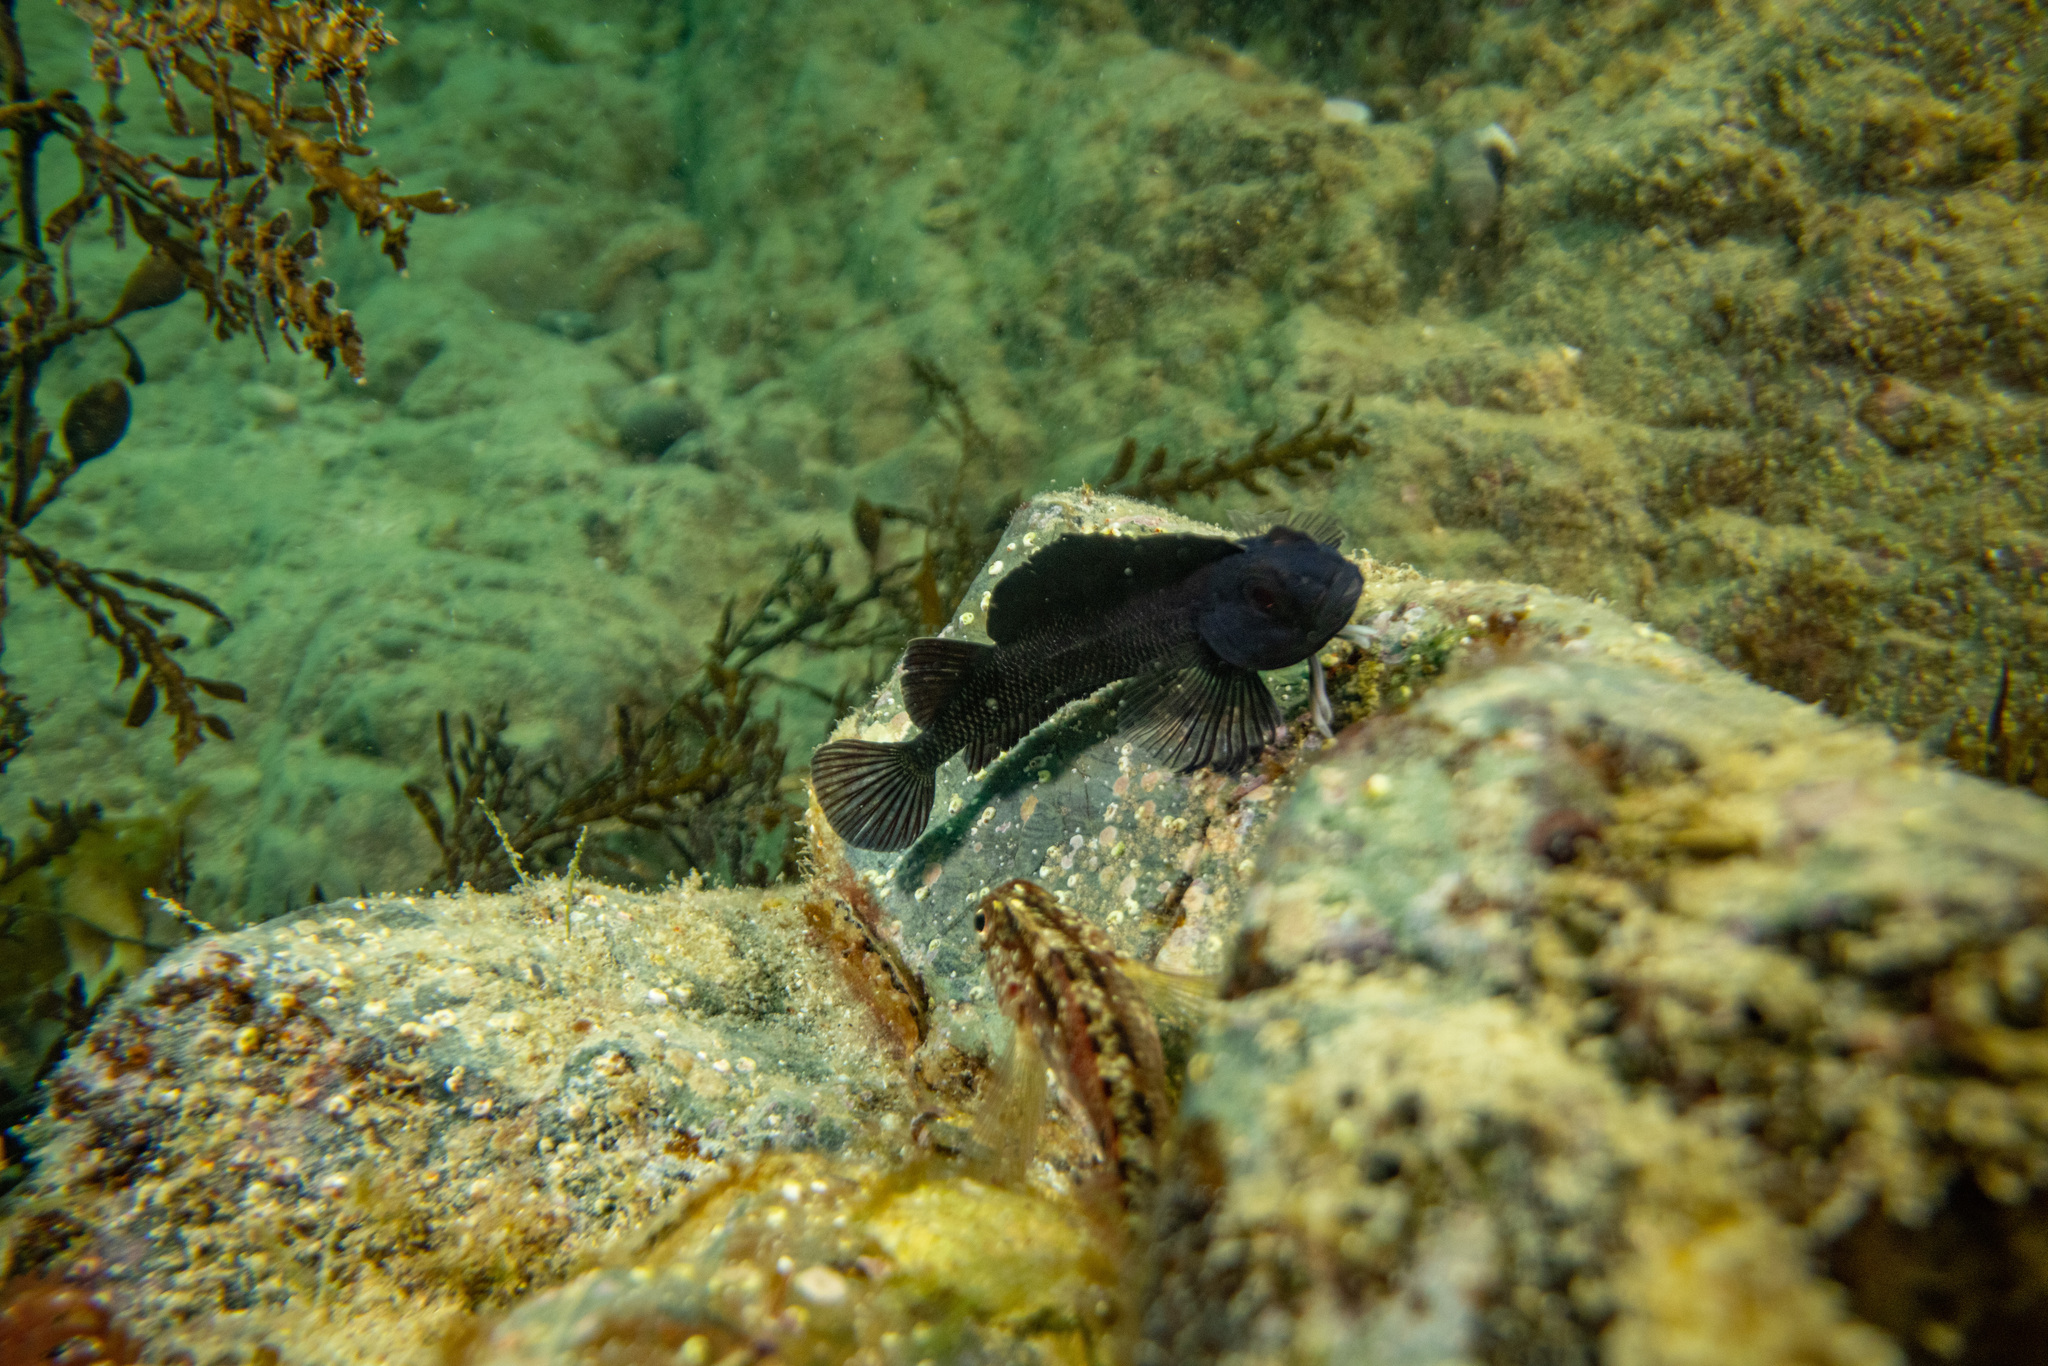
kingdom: Plantae
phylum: Rhodophyta
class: Florideophyceae
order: Rhodymeniales
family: Champiaceae
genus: Champia
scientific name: Champia laingii
